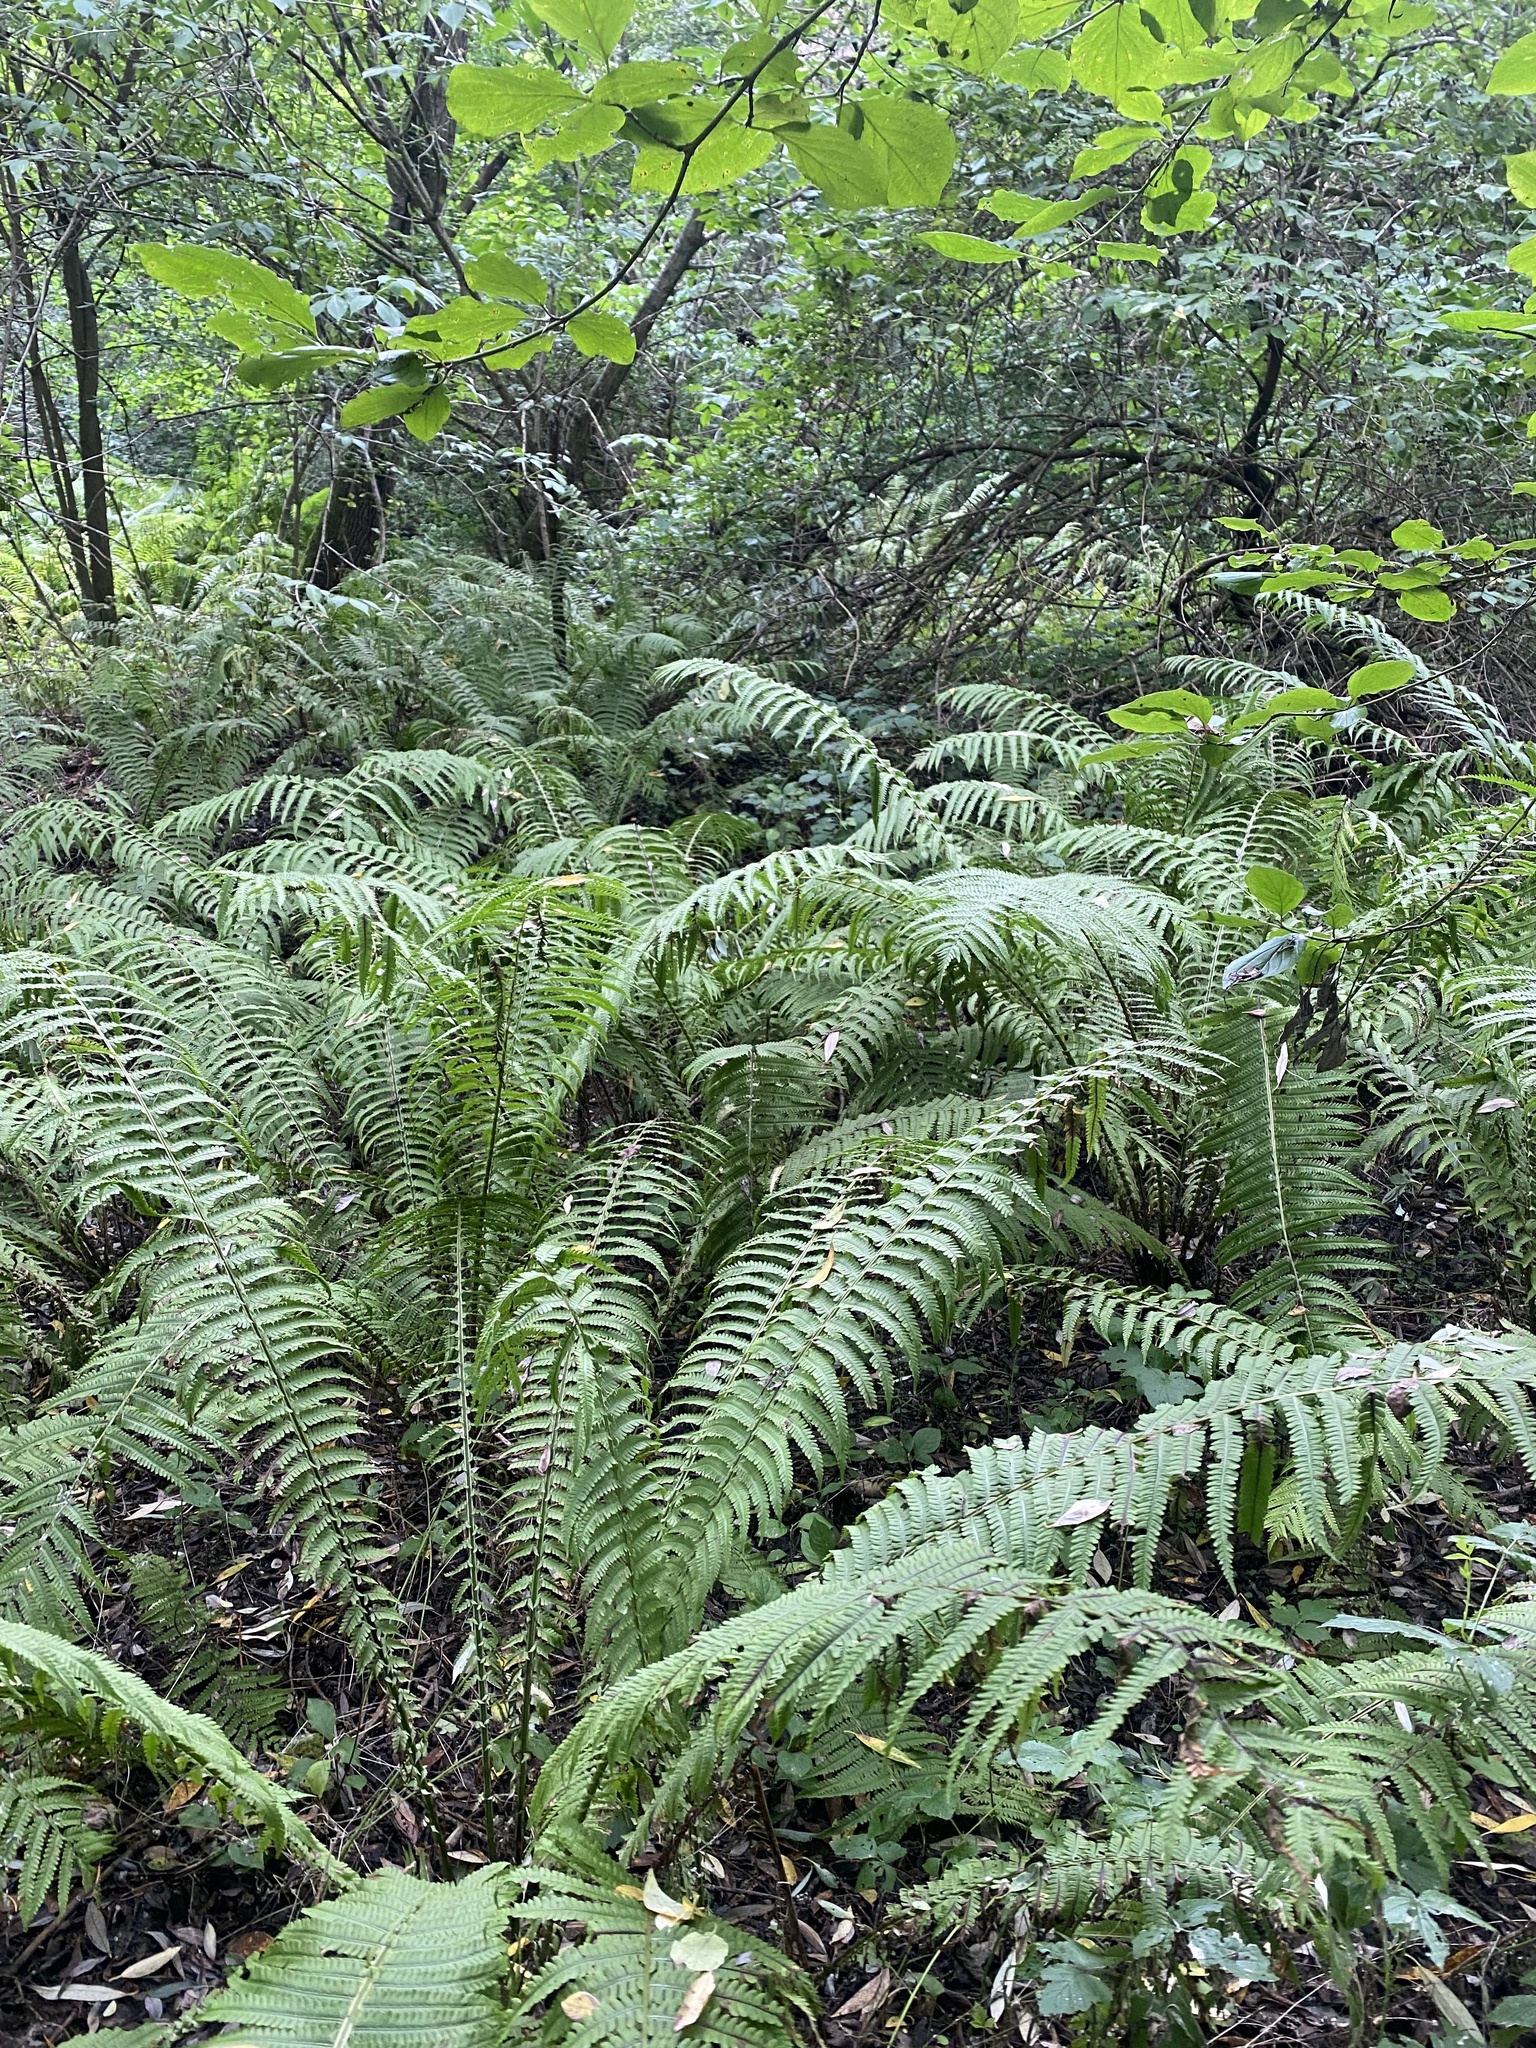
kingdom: Plantae
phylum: Tracheophyta
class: Polypodiopsida
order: Polypodiales
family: Onocleaceae
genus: Matteuccia
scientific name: Matteuccia struthiopteris
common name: Ostrich fern
